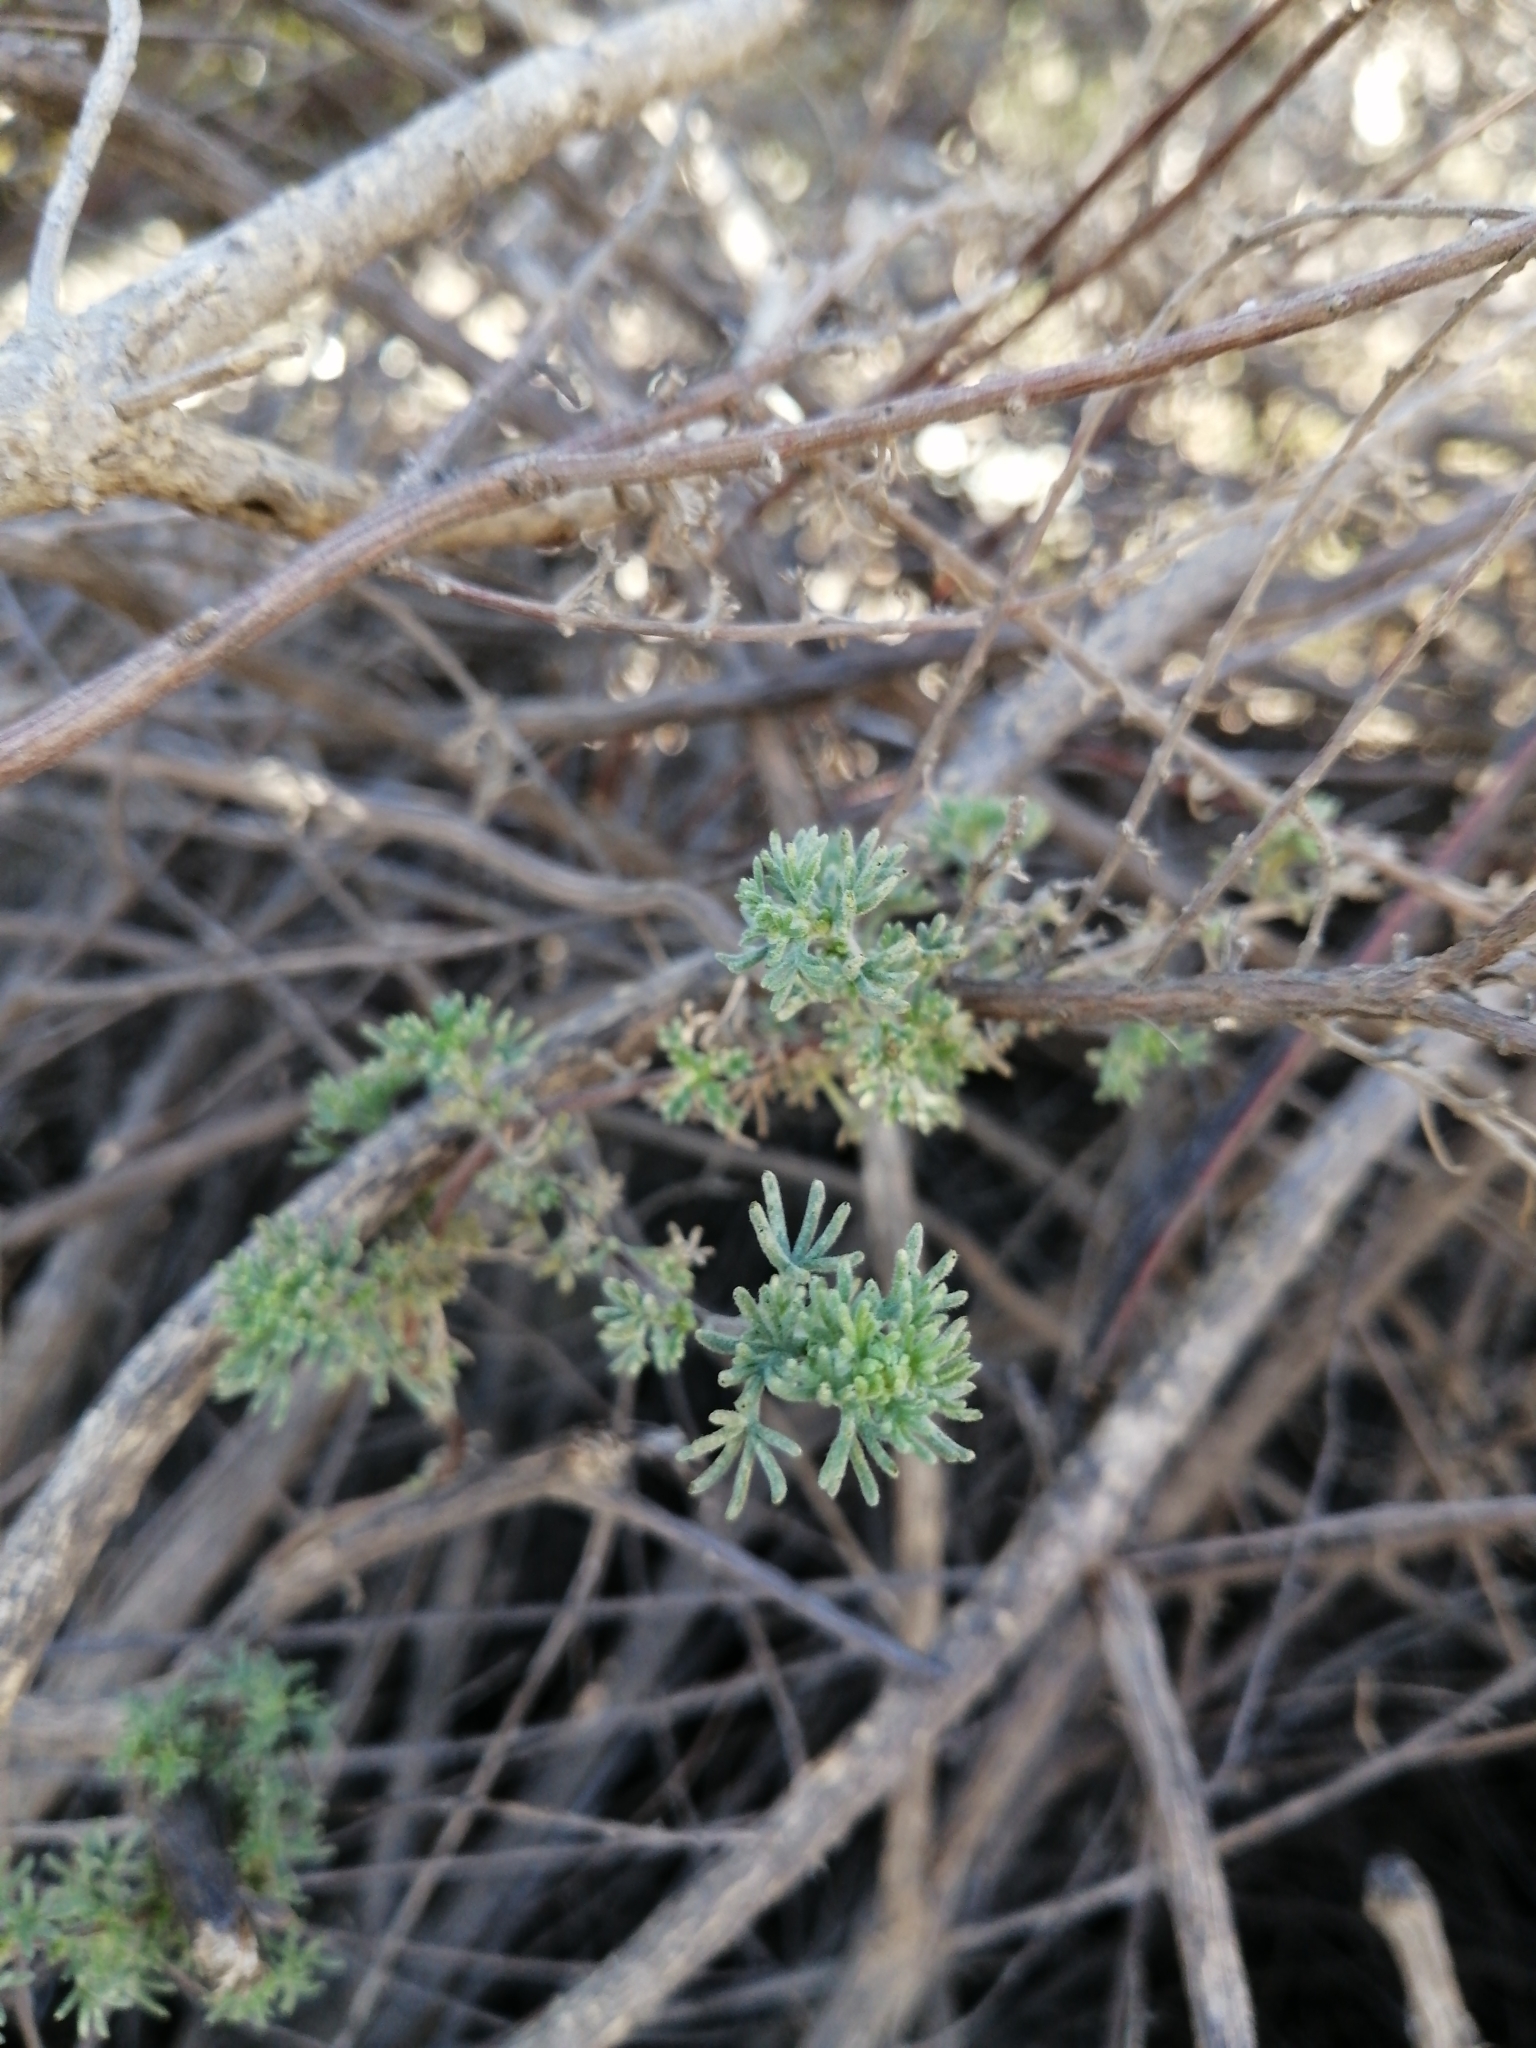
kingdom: Plantae
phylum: Tracheophyta
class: Magnoliopsida
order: Asterales
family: Asteraceae
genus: Eriocephalus
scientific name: Eriocephalus capitellatus
